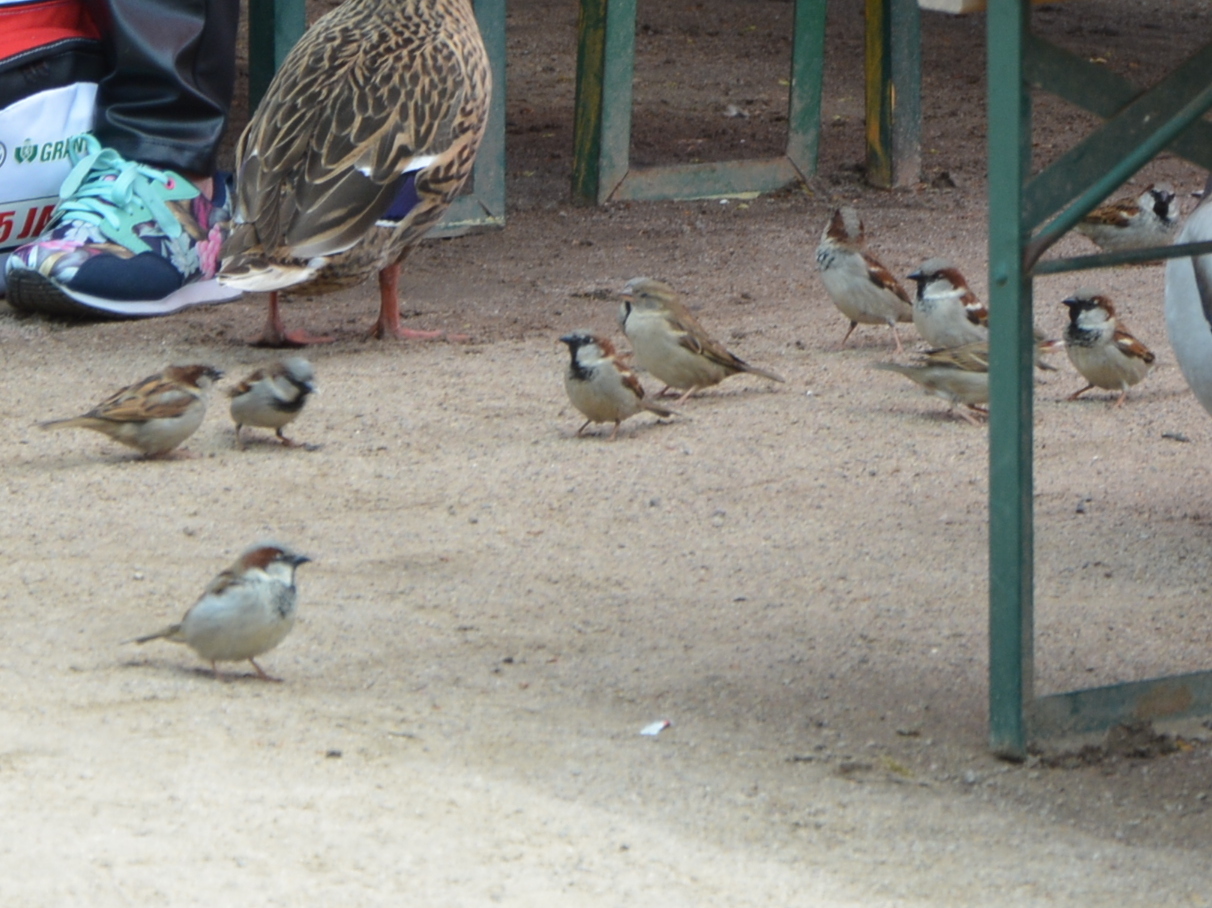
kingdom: Animalia
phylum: Chordata
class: Aves
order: Passeriformes
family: Passeridae
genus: Passer
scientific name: Passer domesticus
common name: House sparrow
